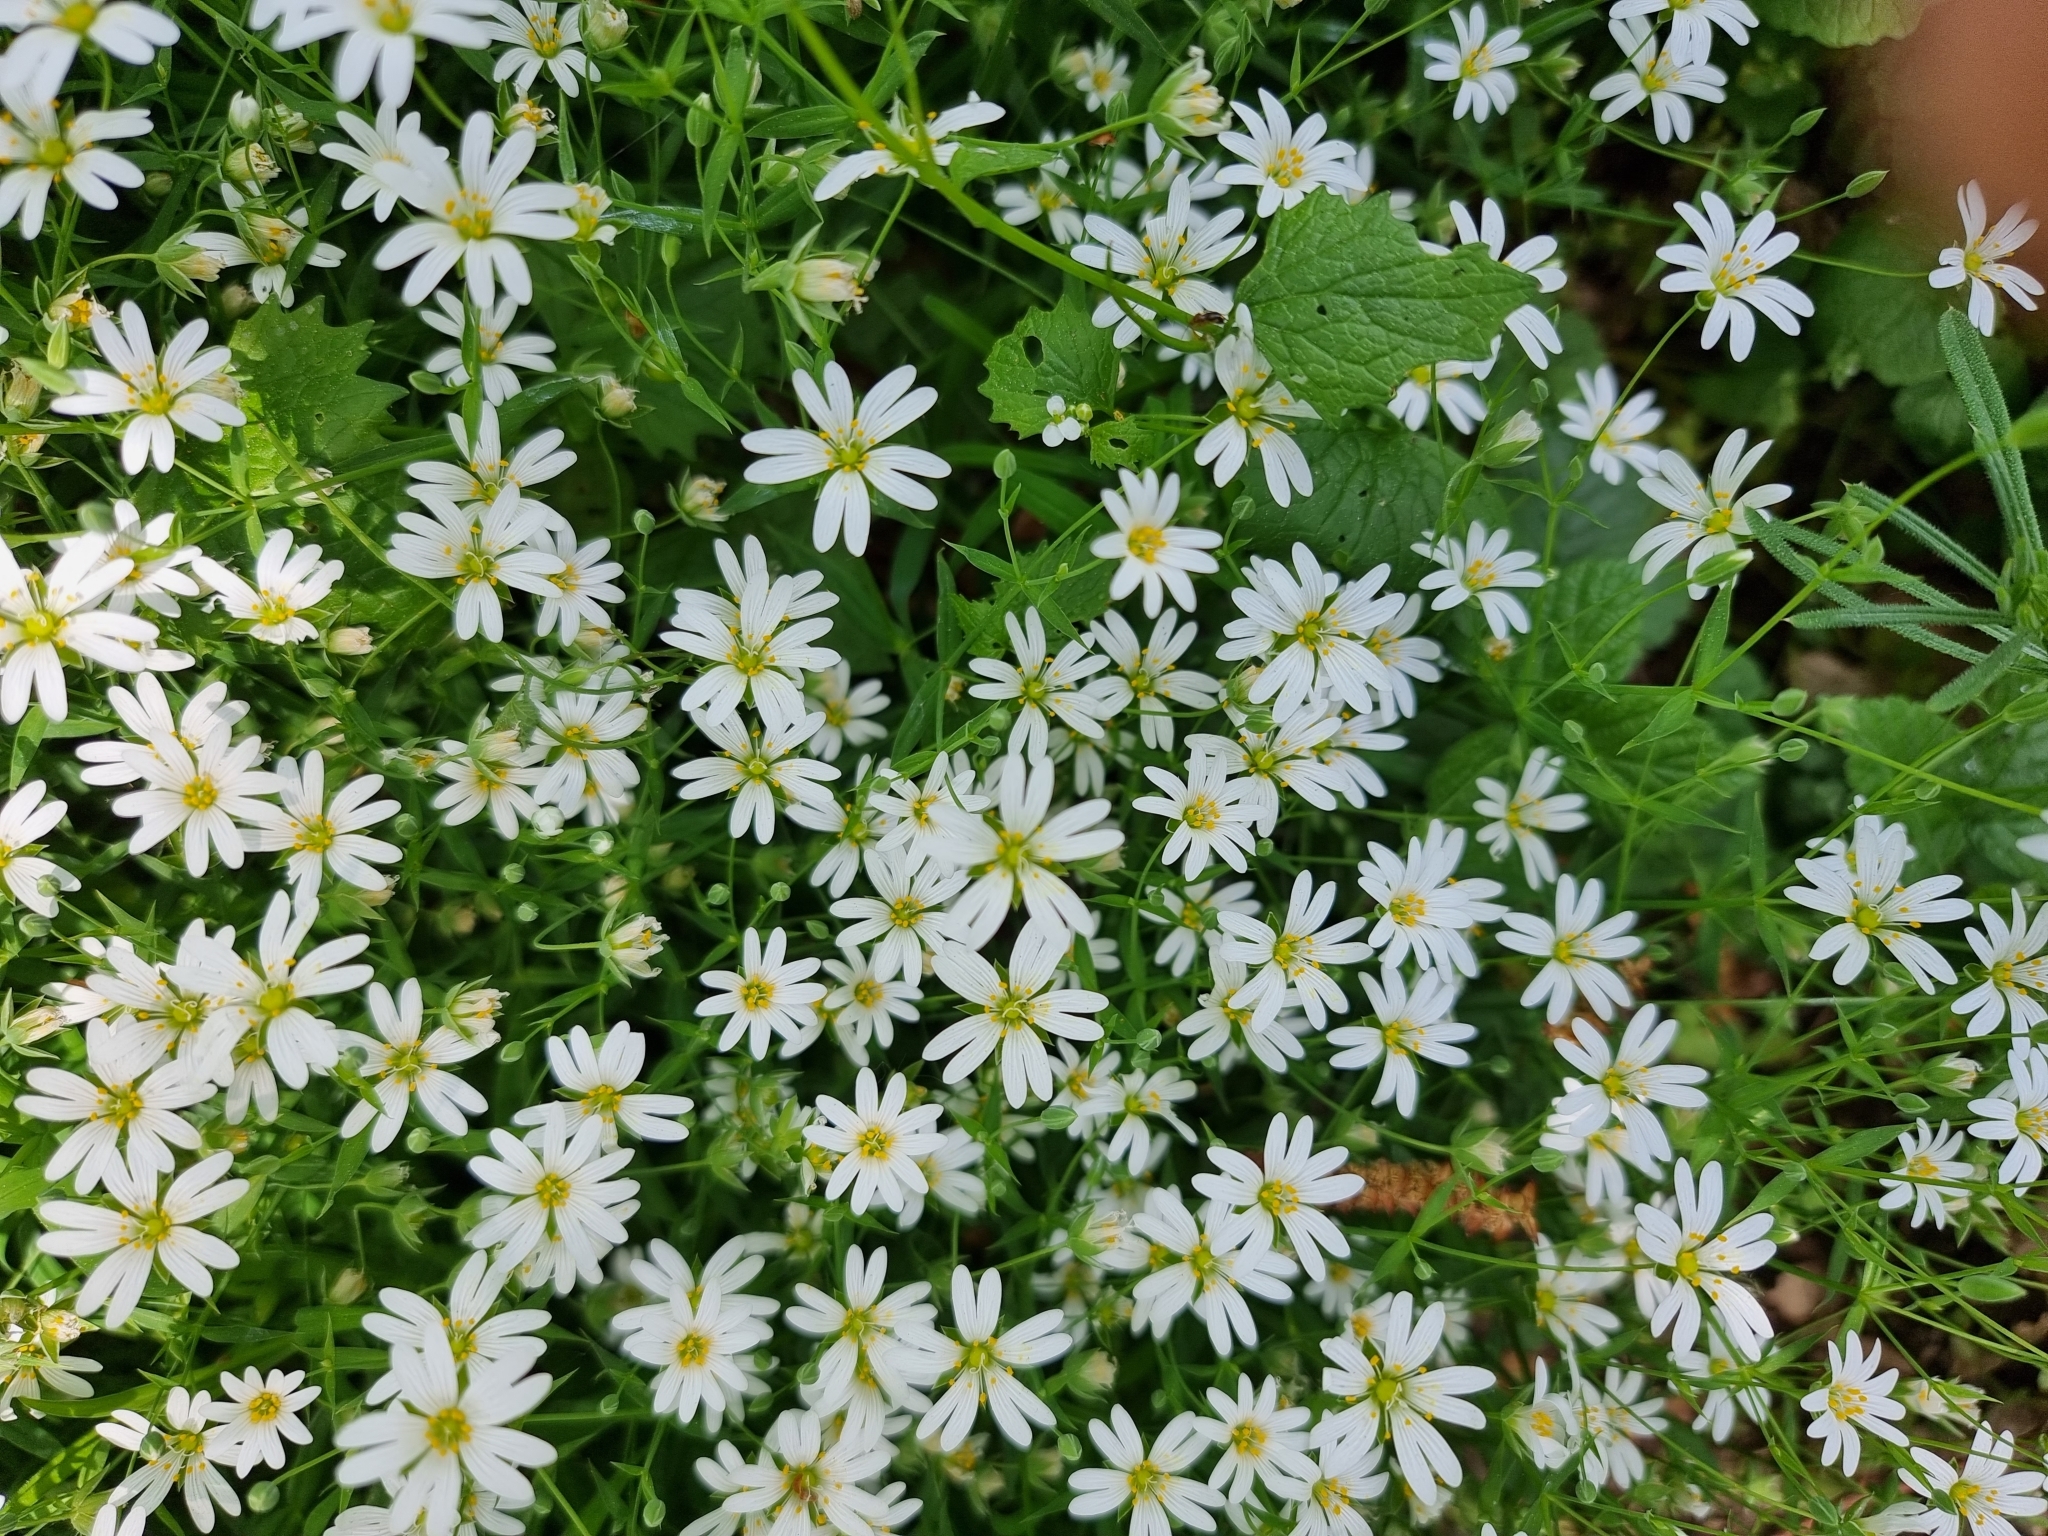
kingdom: Plantae
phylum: Tracheophyta
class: Magnoliopsida
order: Caryophyllales
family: Caryophyllaceae
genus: Rabelera
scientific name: Rabelera holostea
